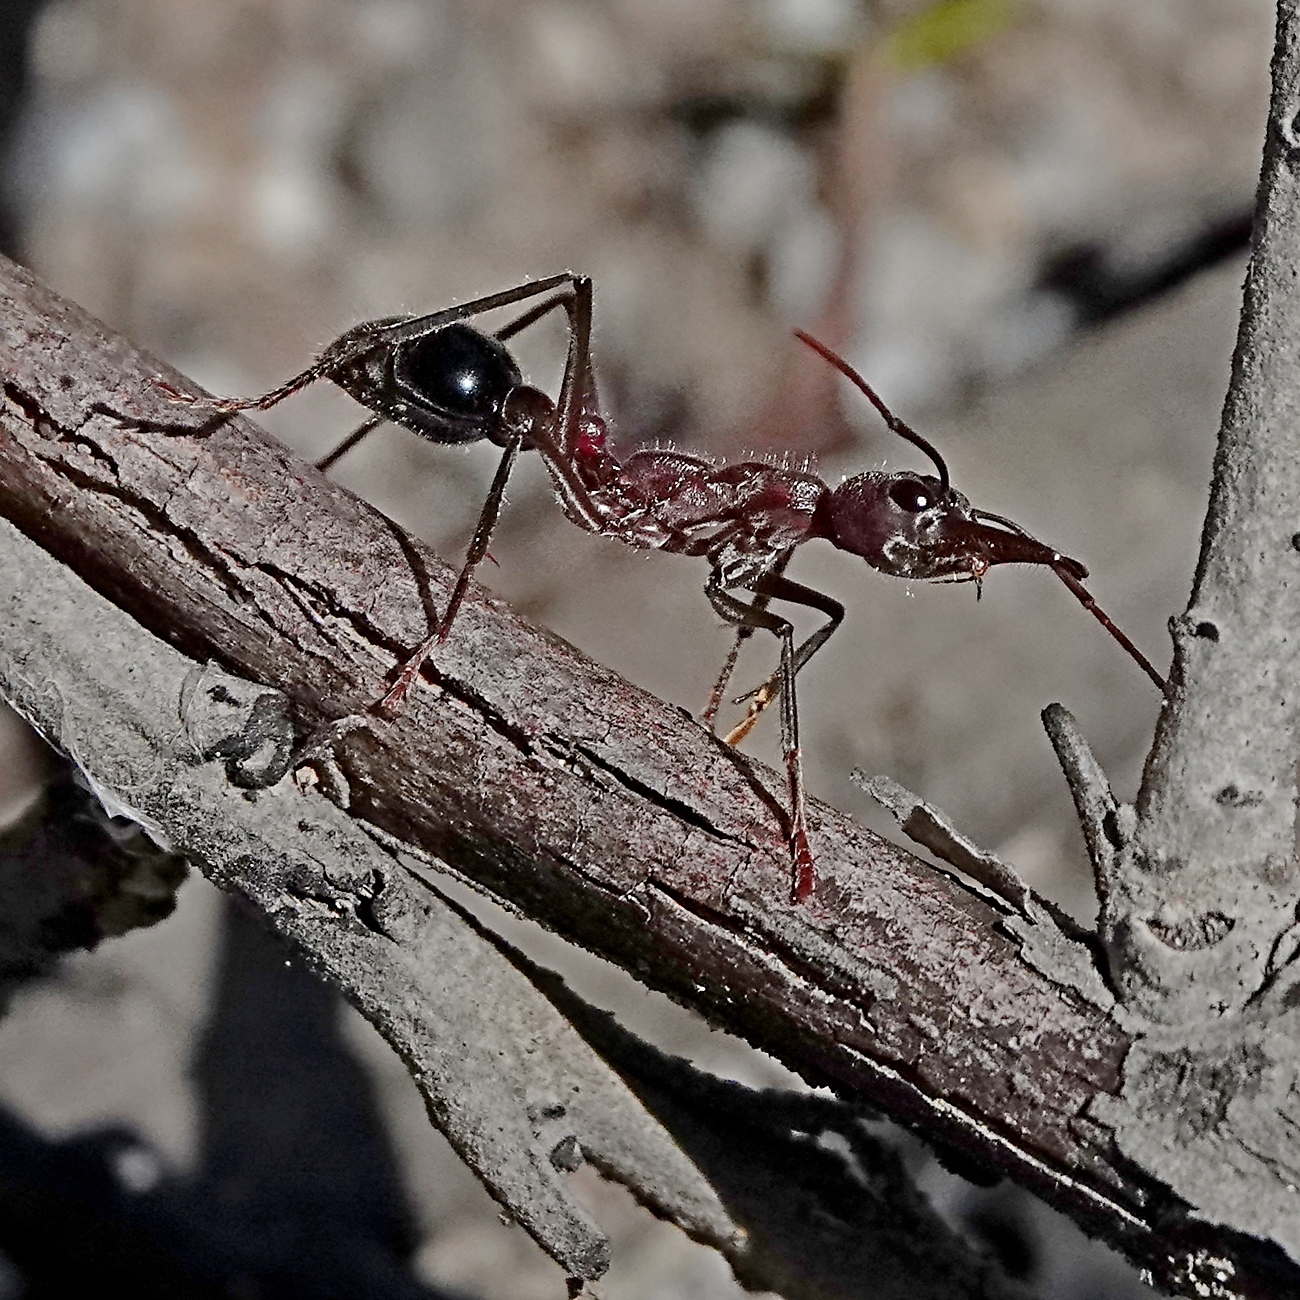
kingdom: Animalia
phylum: Arthropoda
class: Insecta
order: Hymenoptera
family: Formicidae
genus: Myrmecia
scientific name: Myrmecia simillima
